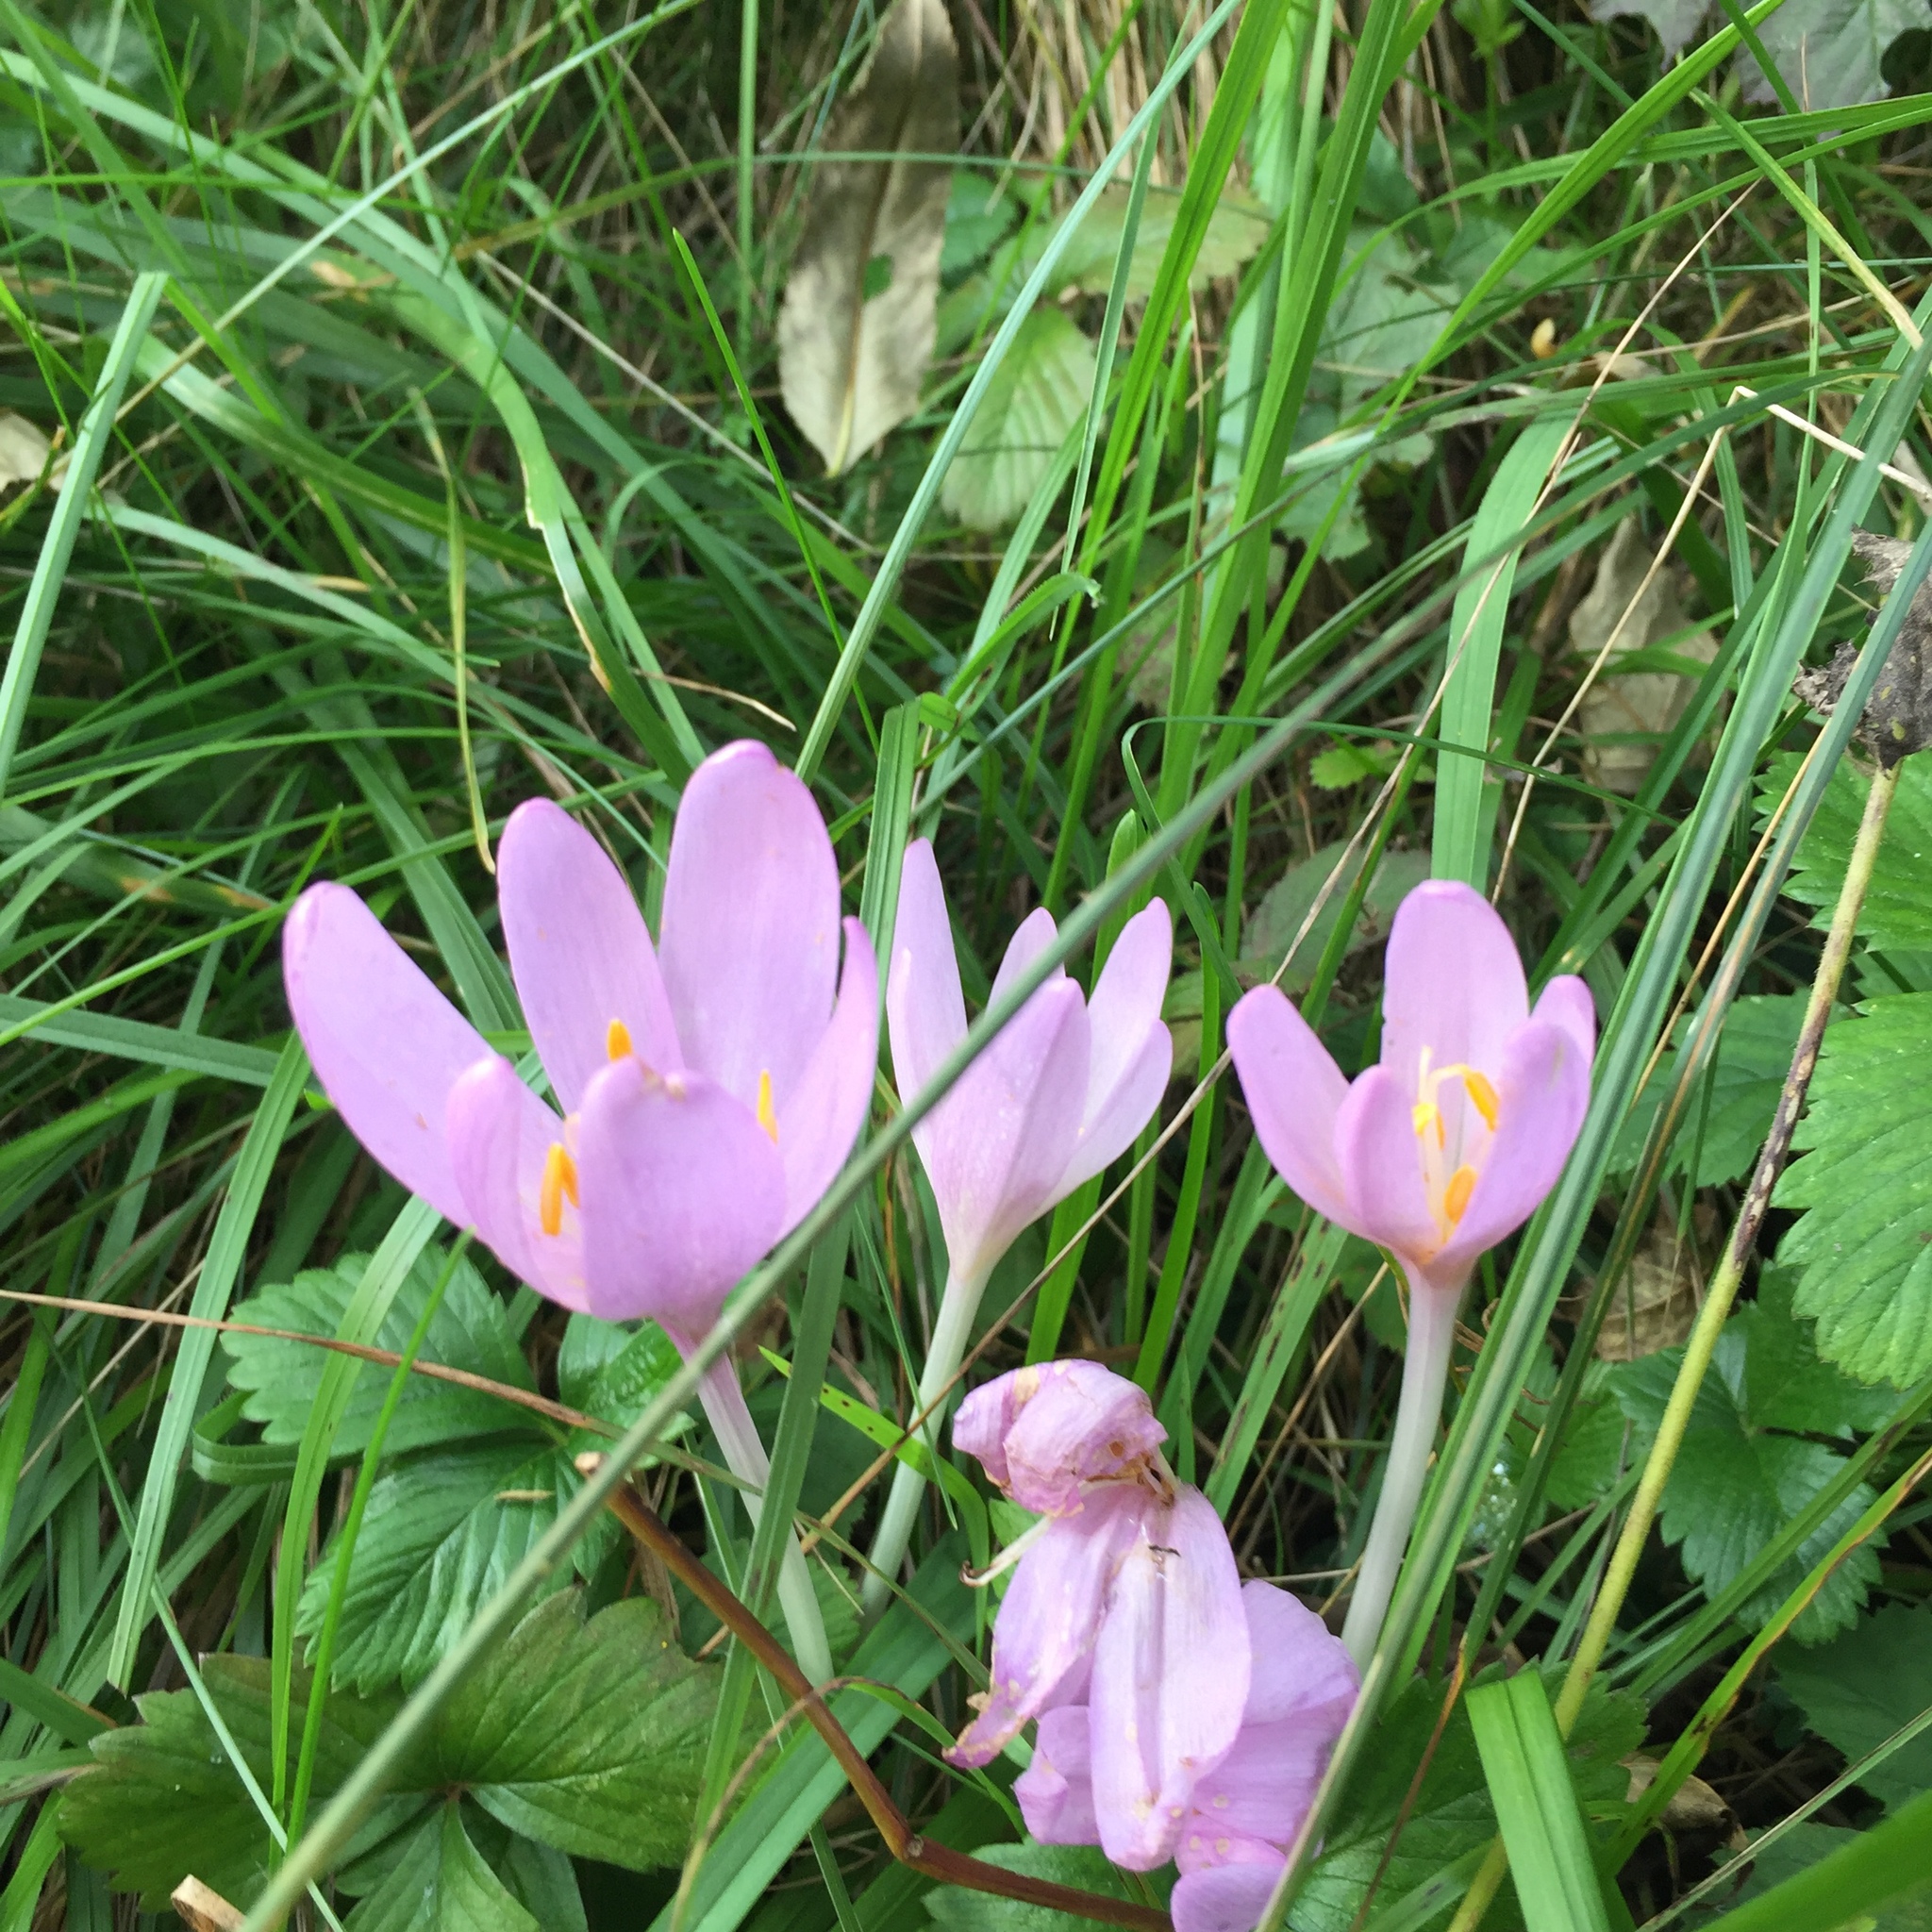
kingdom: Plantae
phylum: Tracheophyta
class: Liliopsida
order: Liliales
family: Colchicaceae
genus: Colchicum
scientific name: Colchicum autumnale
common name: Autumn crocus
